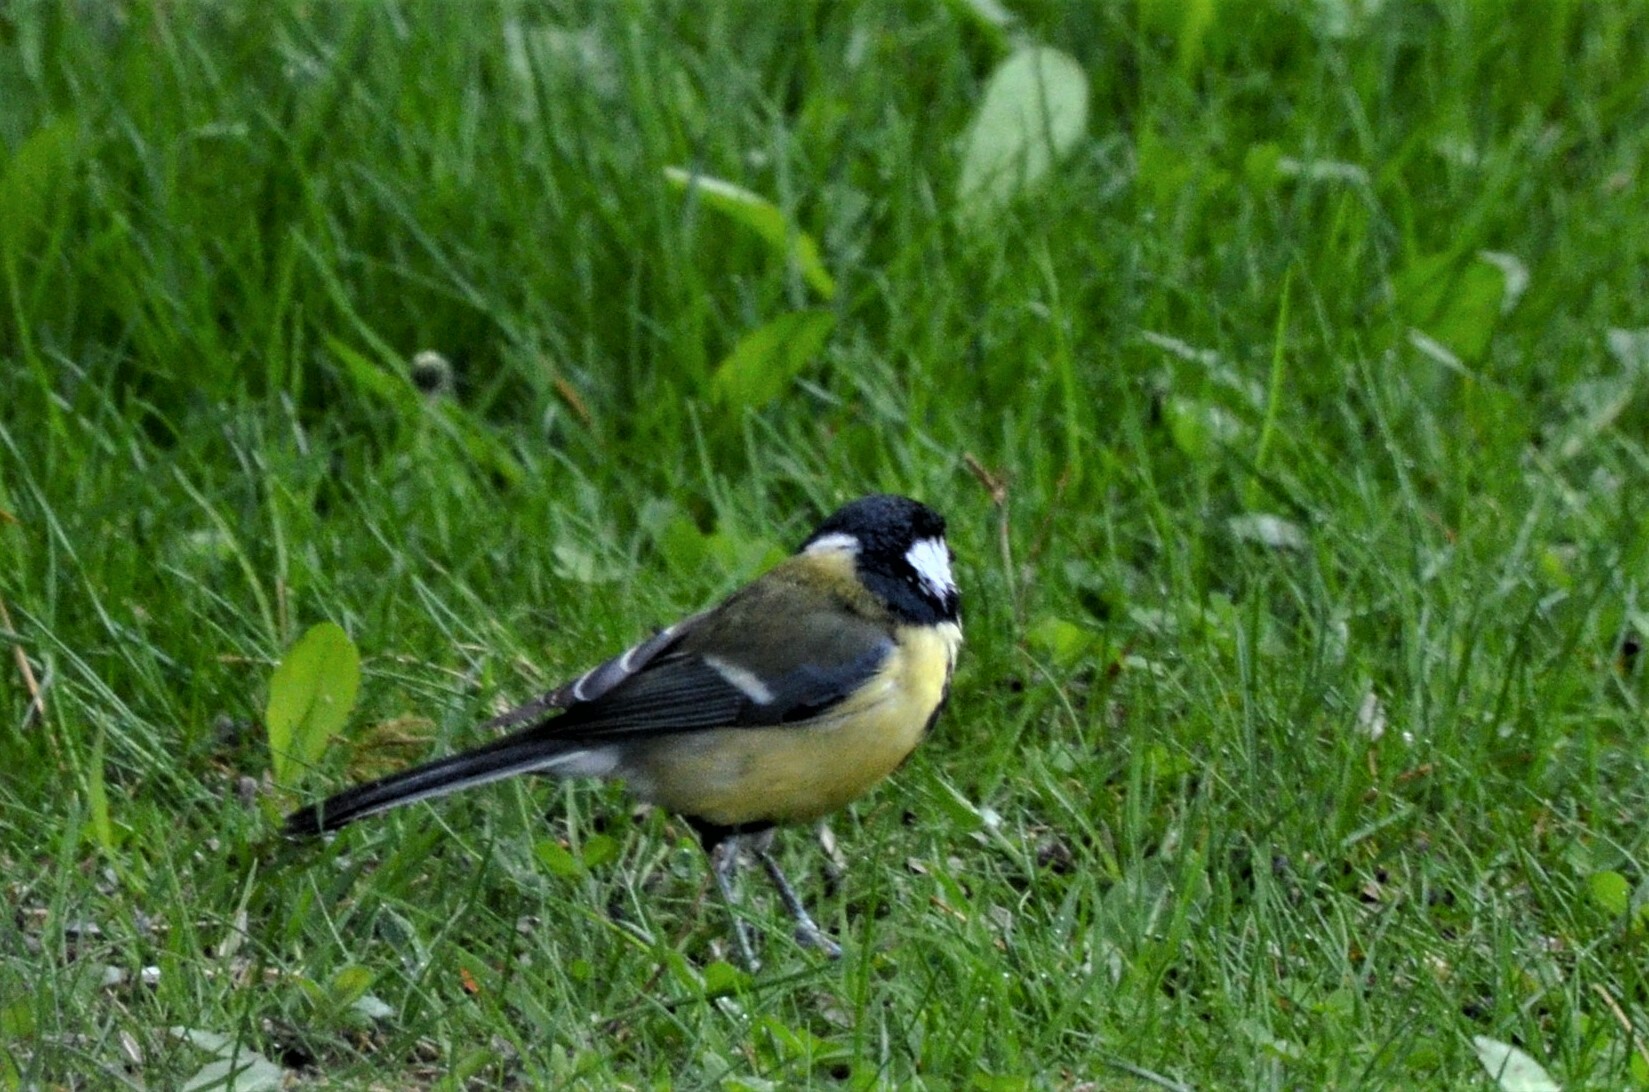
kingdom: Animalia
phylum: Chordata
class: Aves
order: Passeriformes
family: Paridae
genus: Parus
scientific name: Parus major
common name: Great tit
